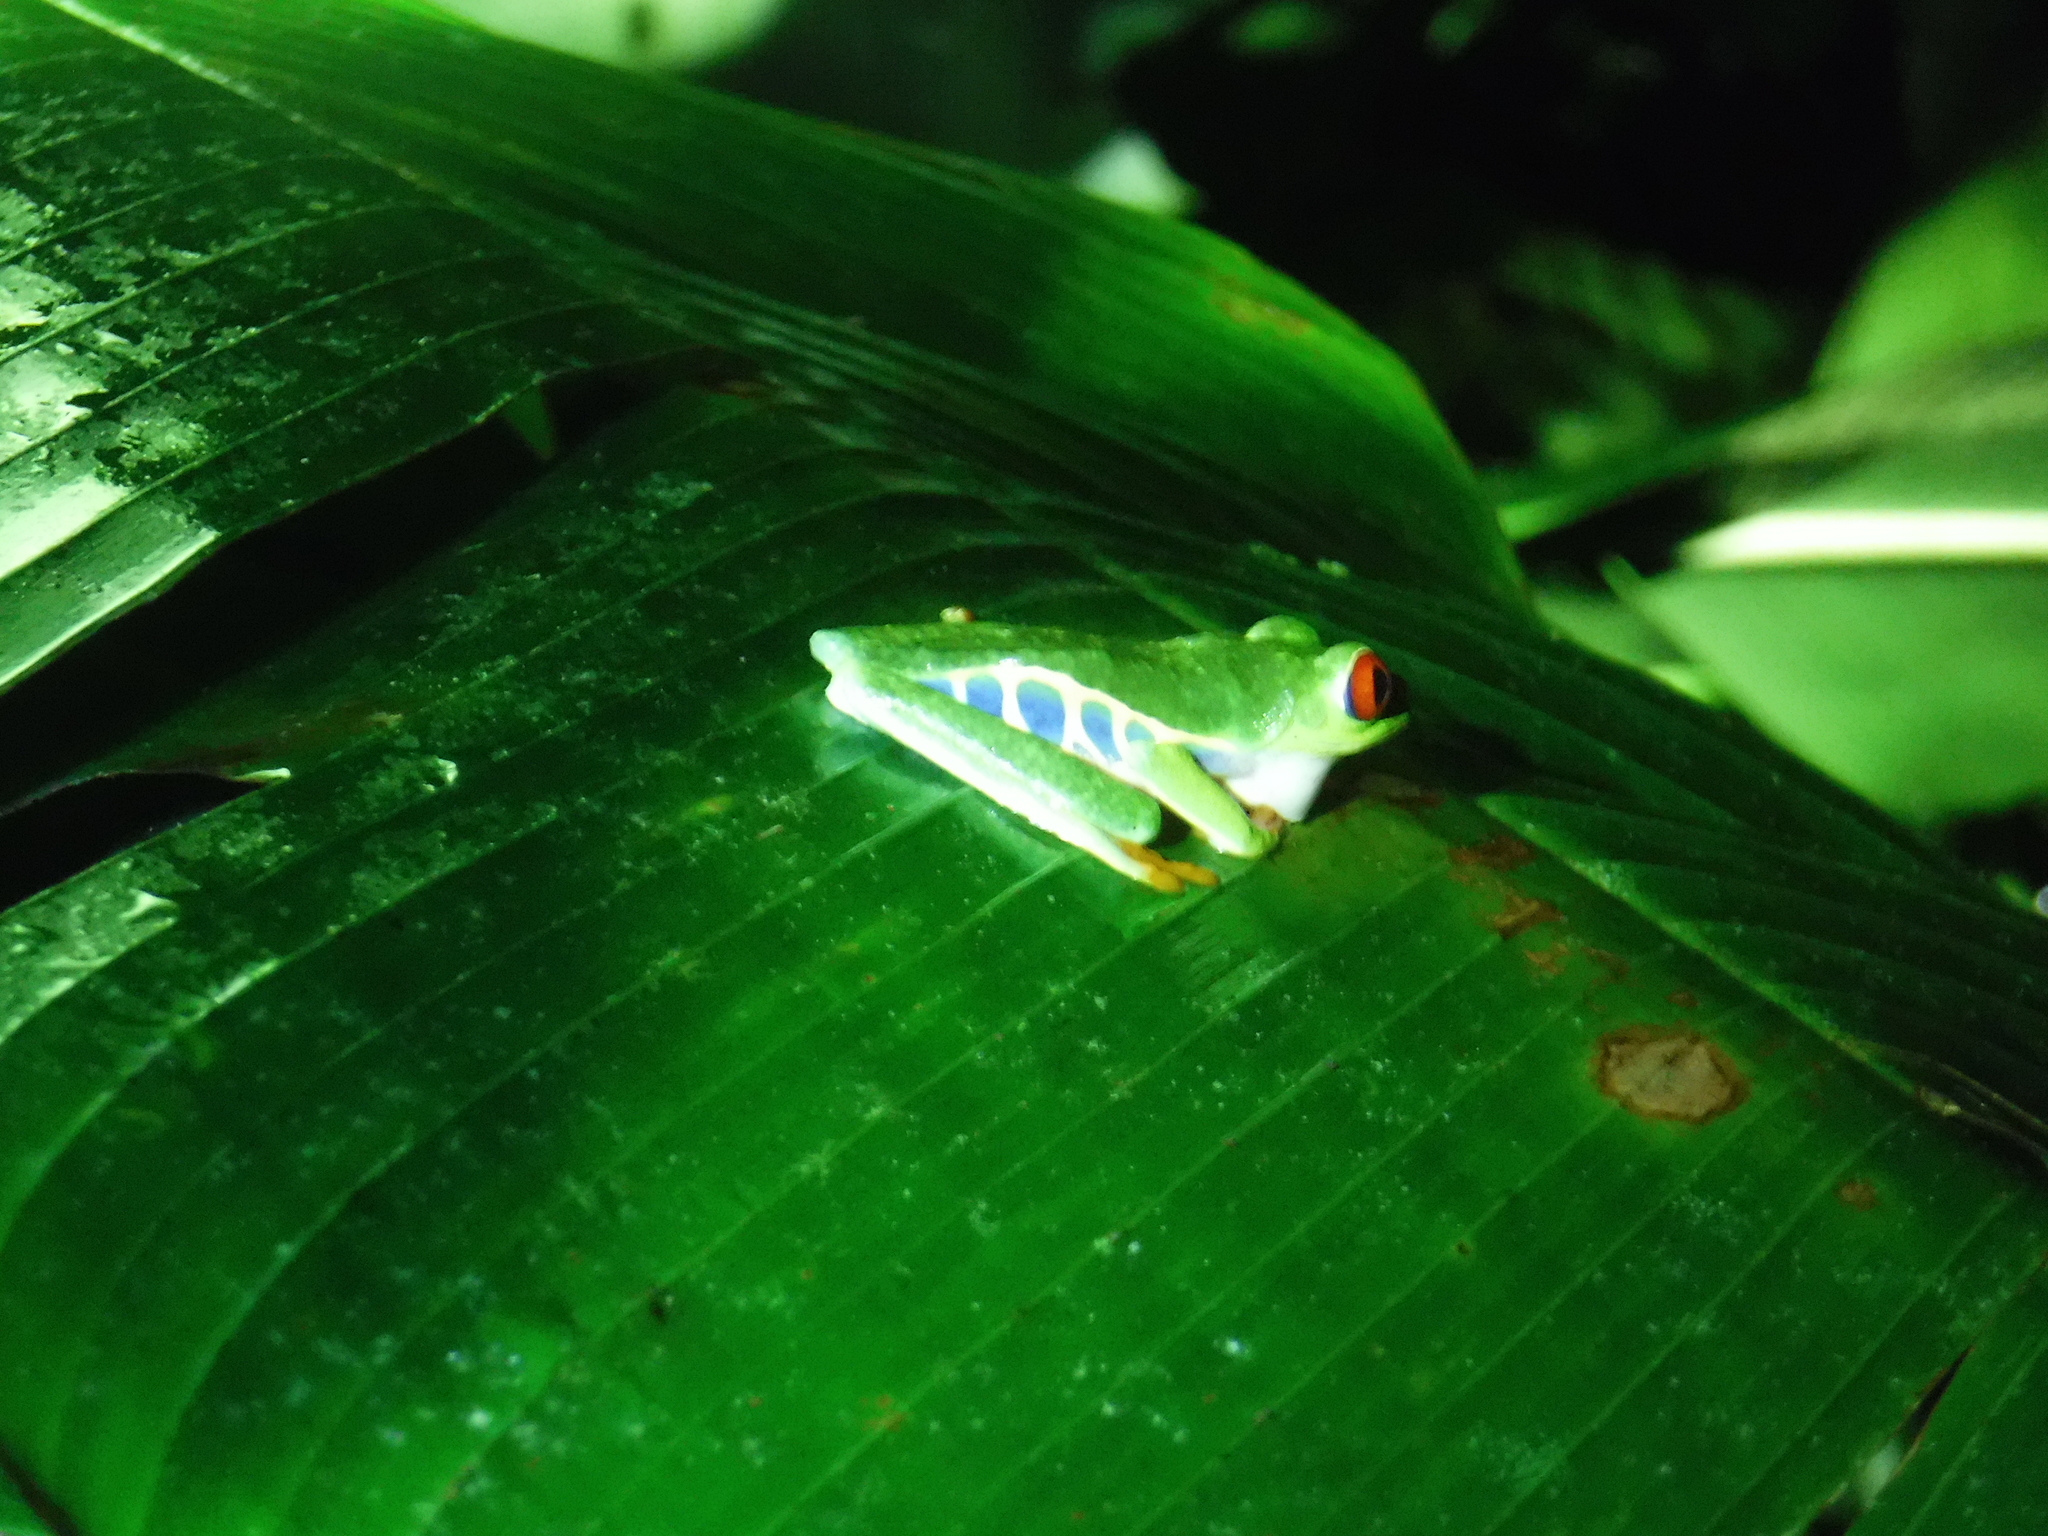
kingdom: Animalia
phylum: Chordata
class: Amphibia
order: Anura
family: Phyllomedusidae
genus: Agalychnis
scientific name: Agalychnis callidryas
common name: Red-eyed treefrog
